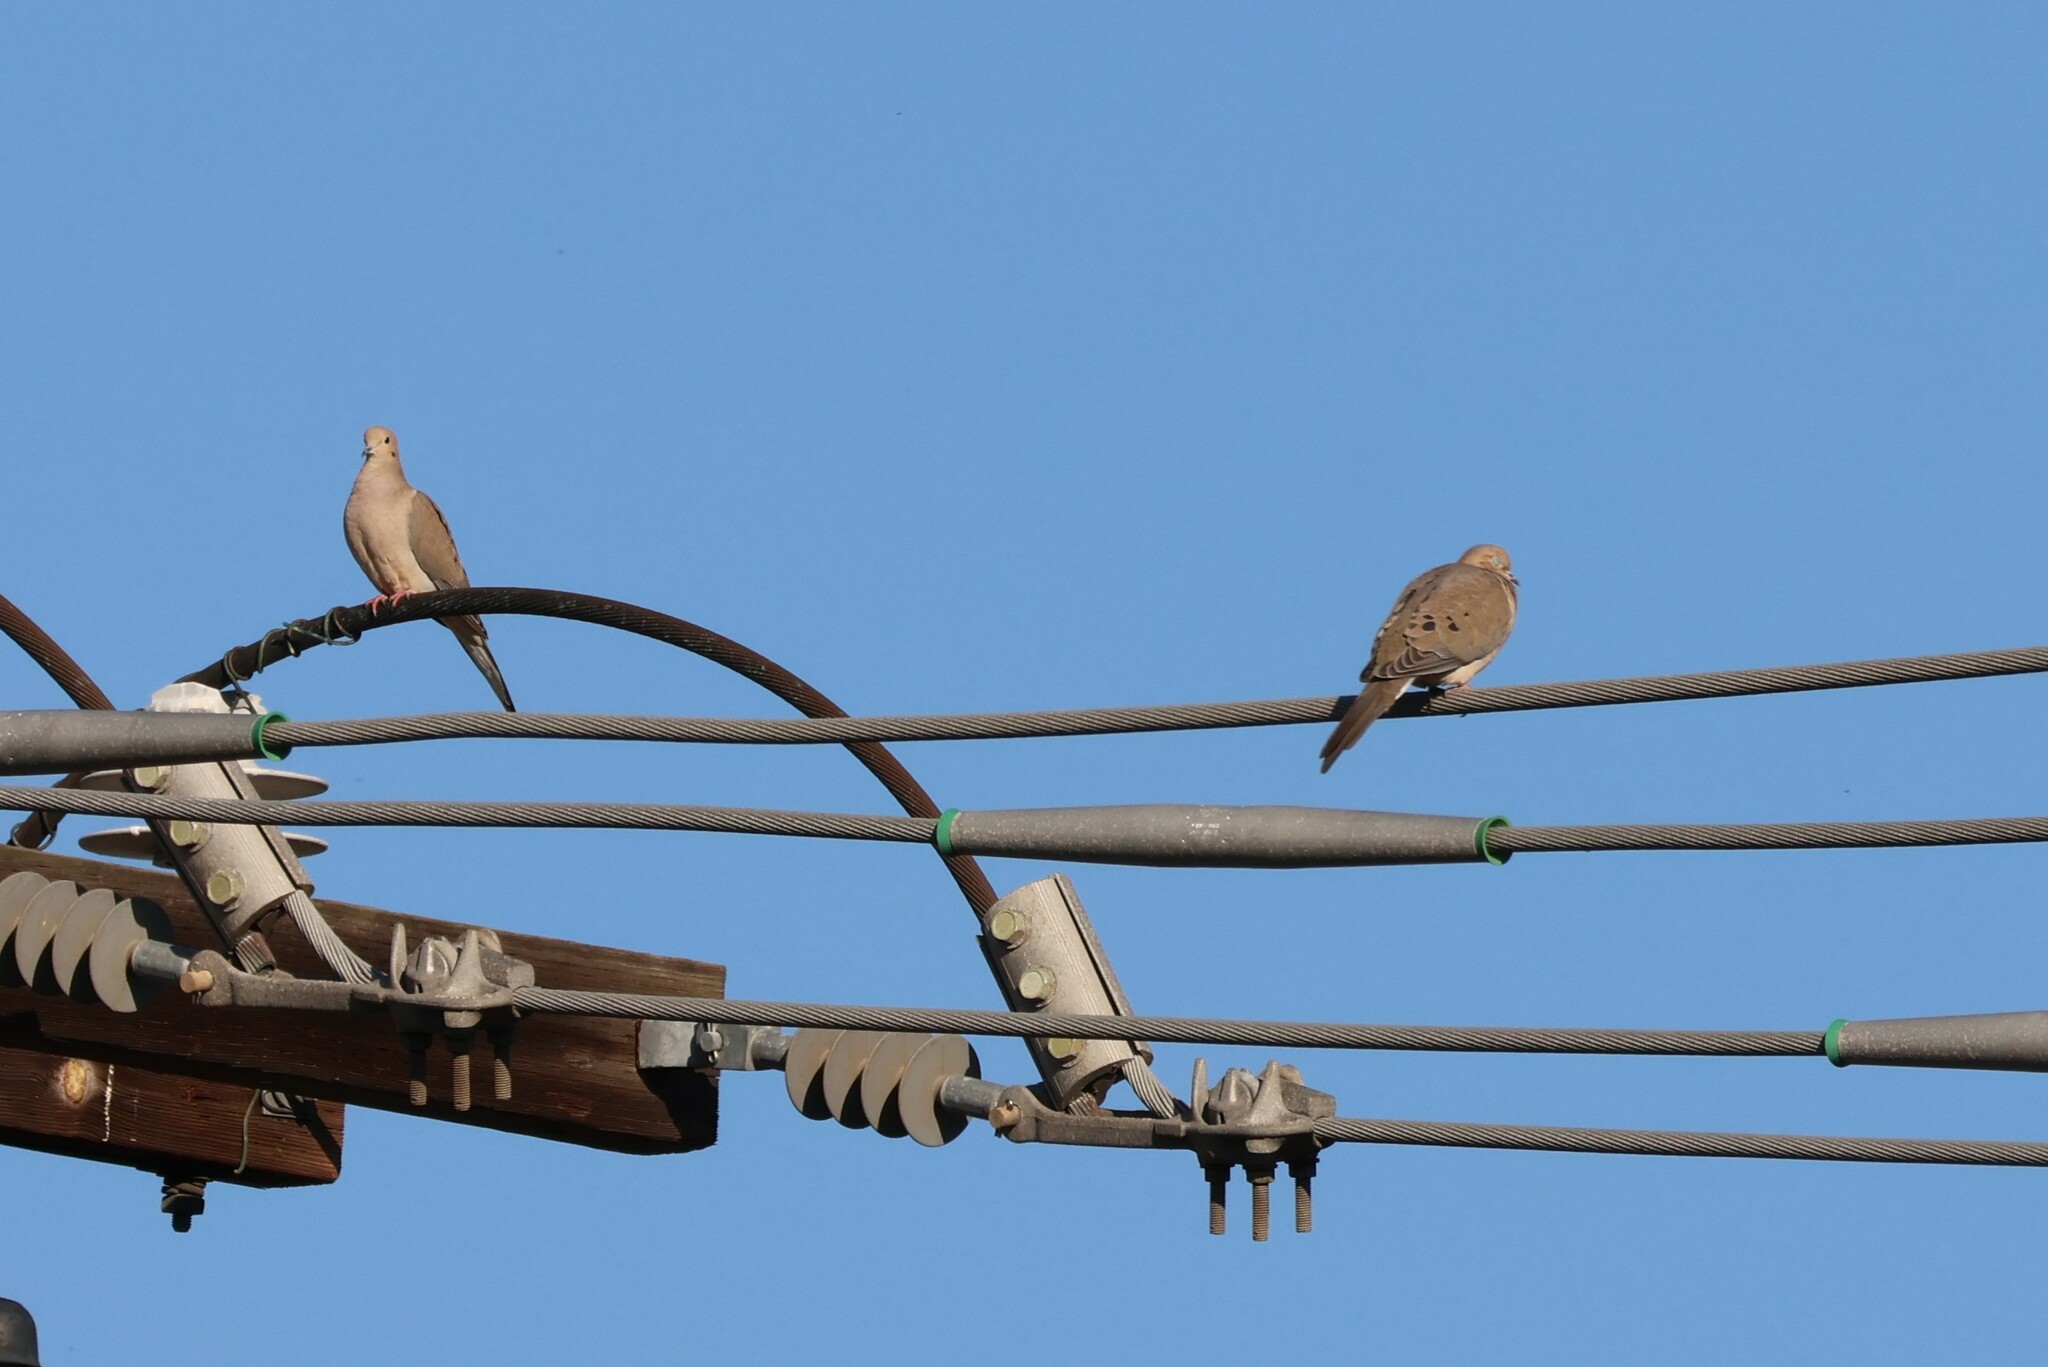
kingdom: Animalia
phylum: Chordata
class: Aves
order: Columbiformes
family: Columbidae
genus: Zenaida
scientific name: Zenaida macroura
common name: Mourning dove
